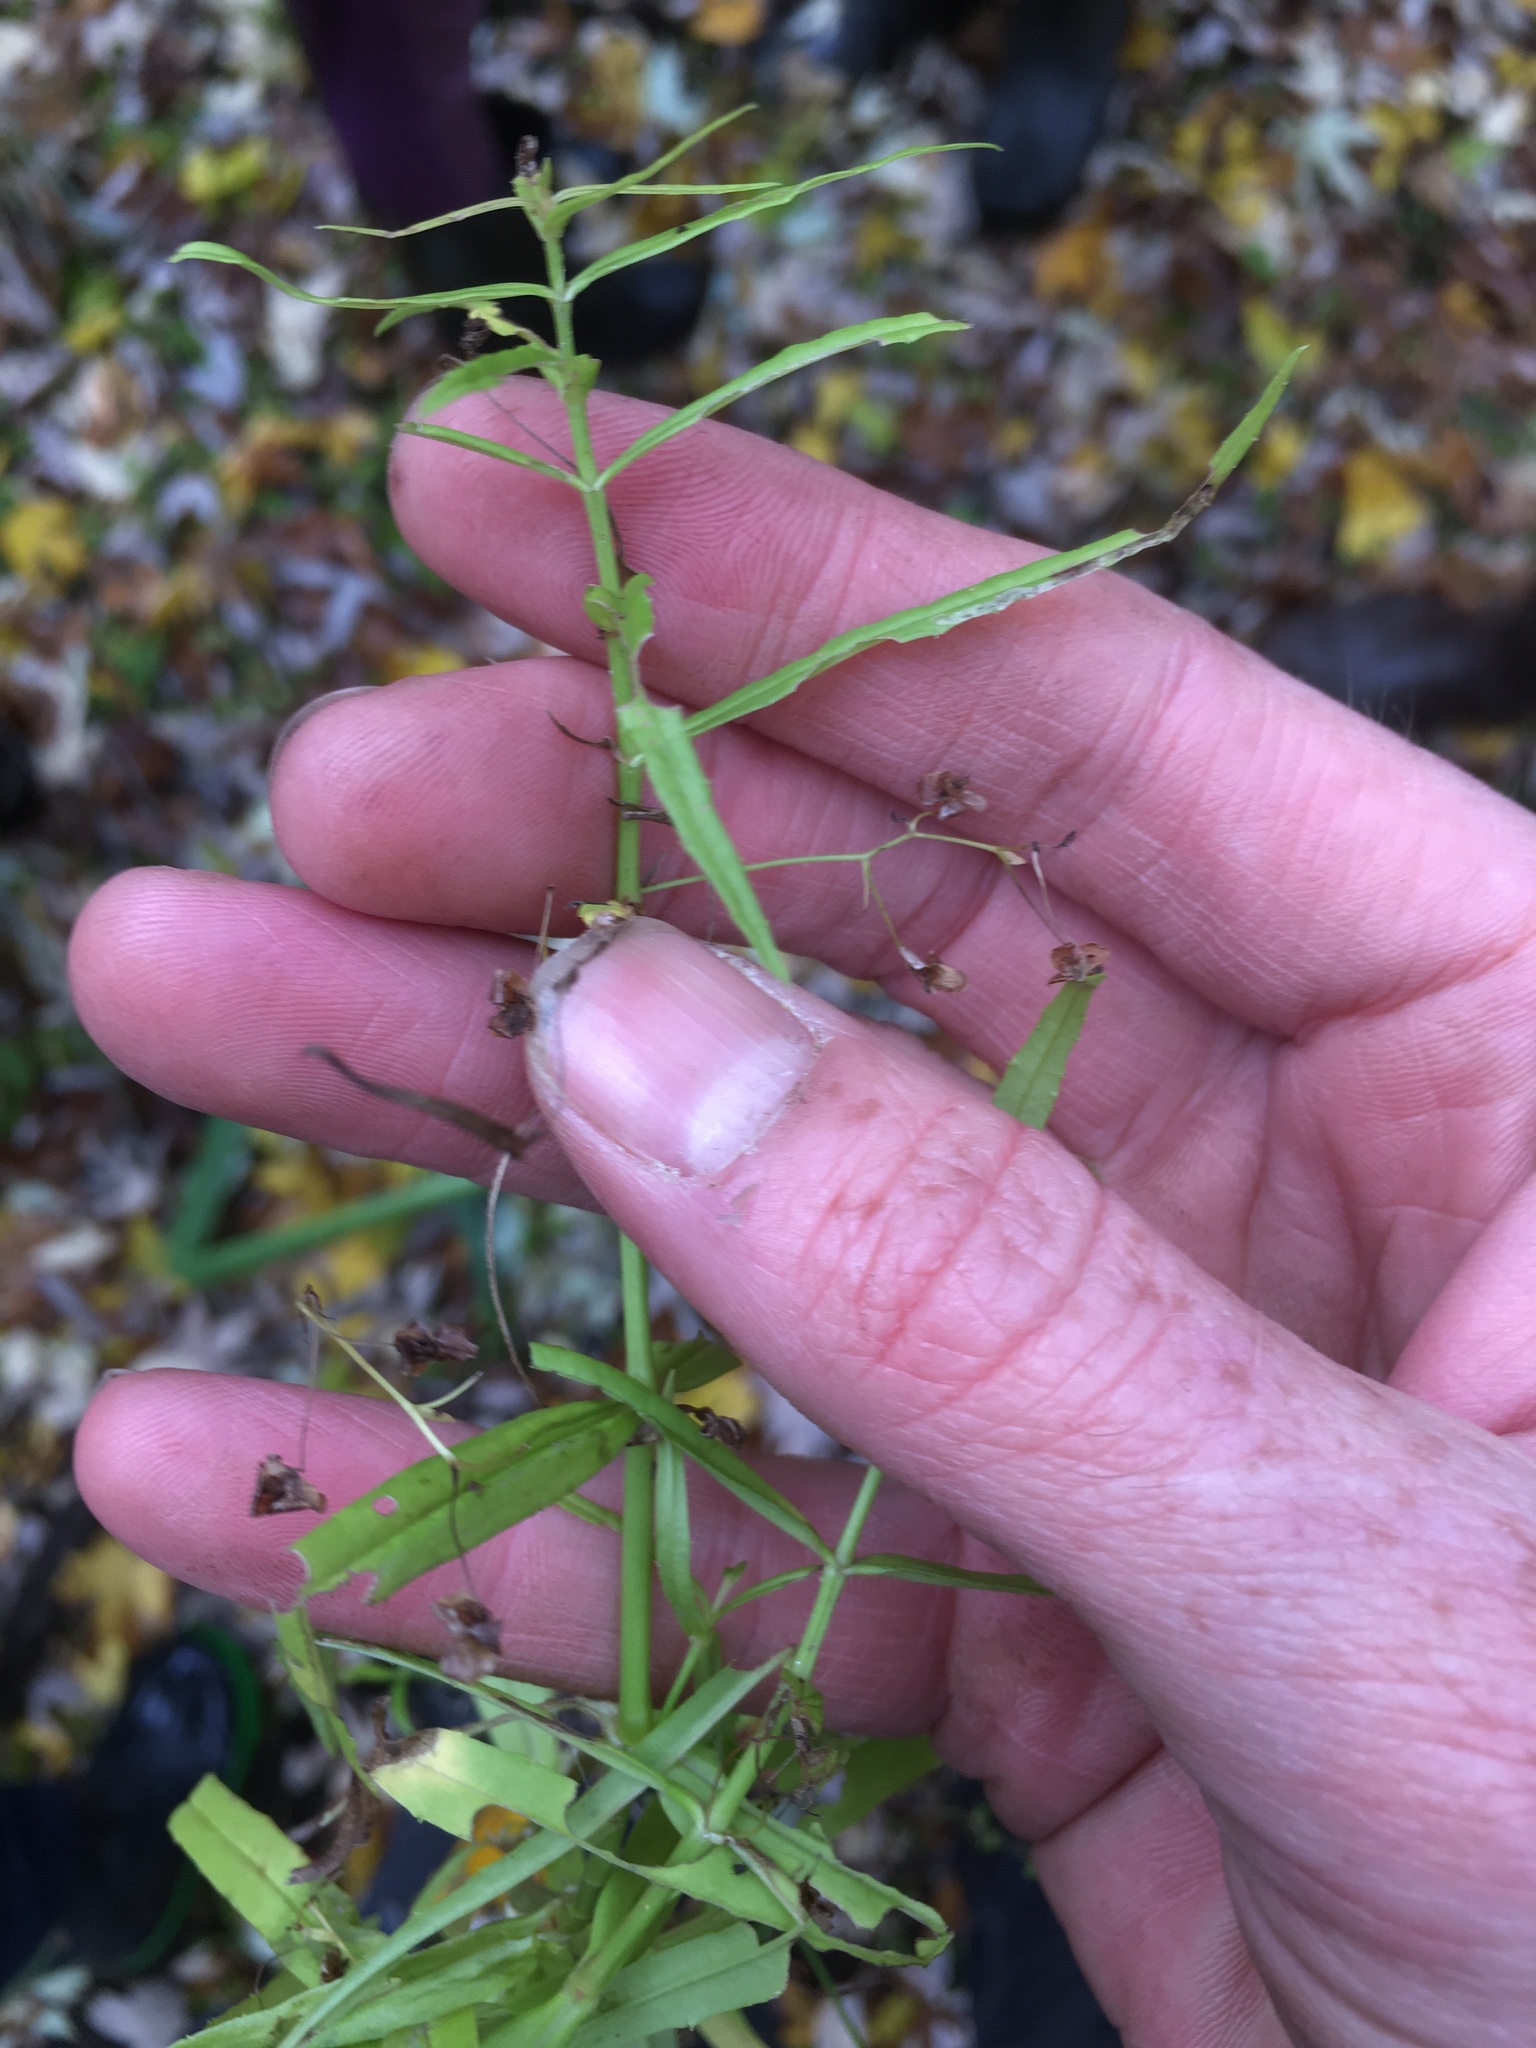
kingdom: Plantae
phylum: Tracheophyta
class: Magnoliopsida
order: Lamiales
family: Plantaginaceae
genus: Veronica
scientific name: Veronica scutellata
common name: Marsh speedwell
